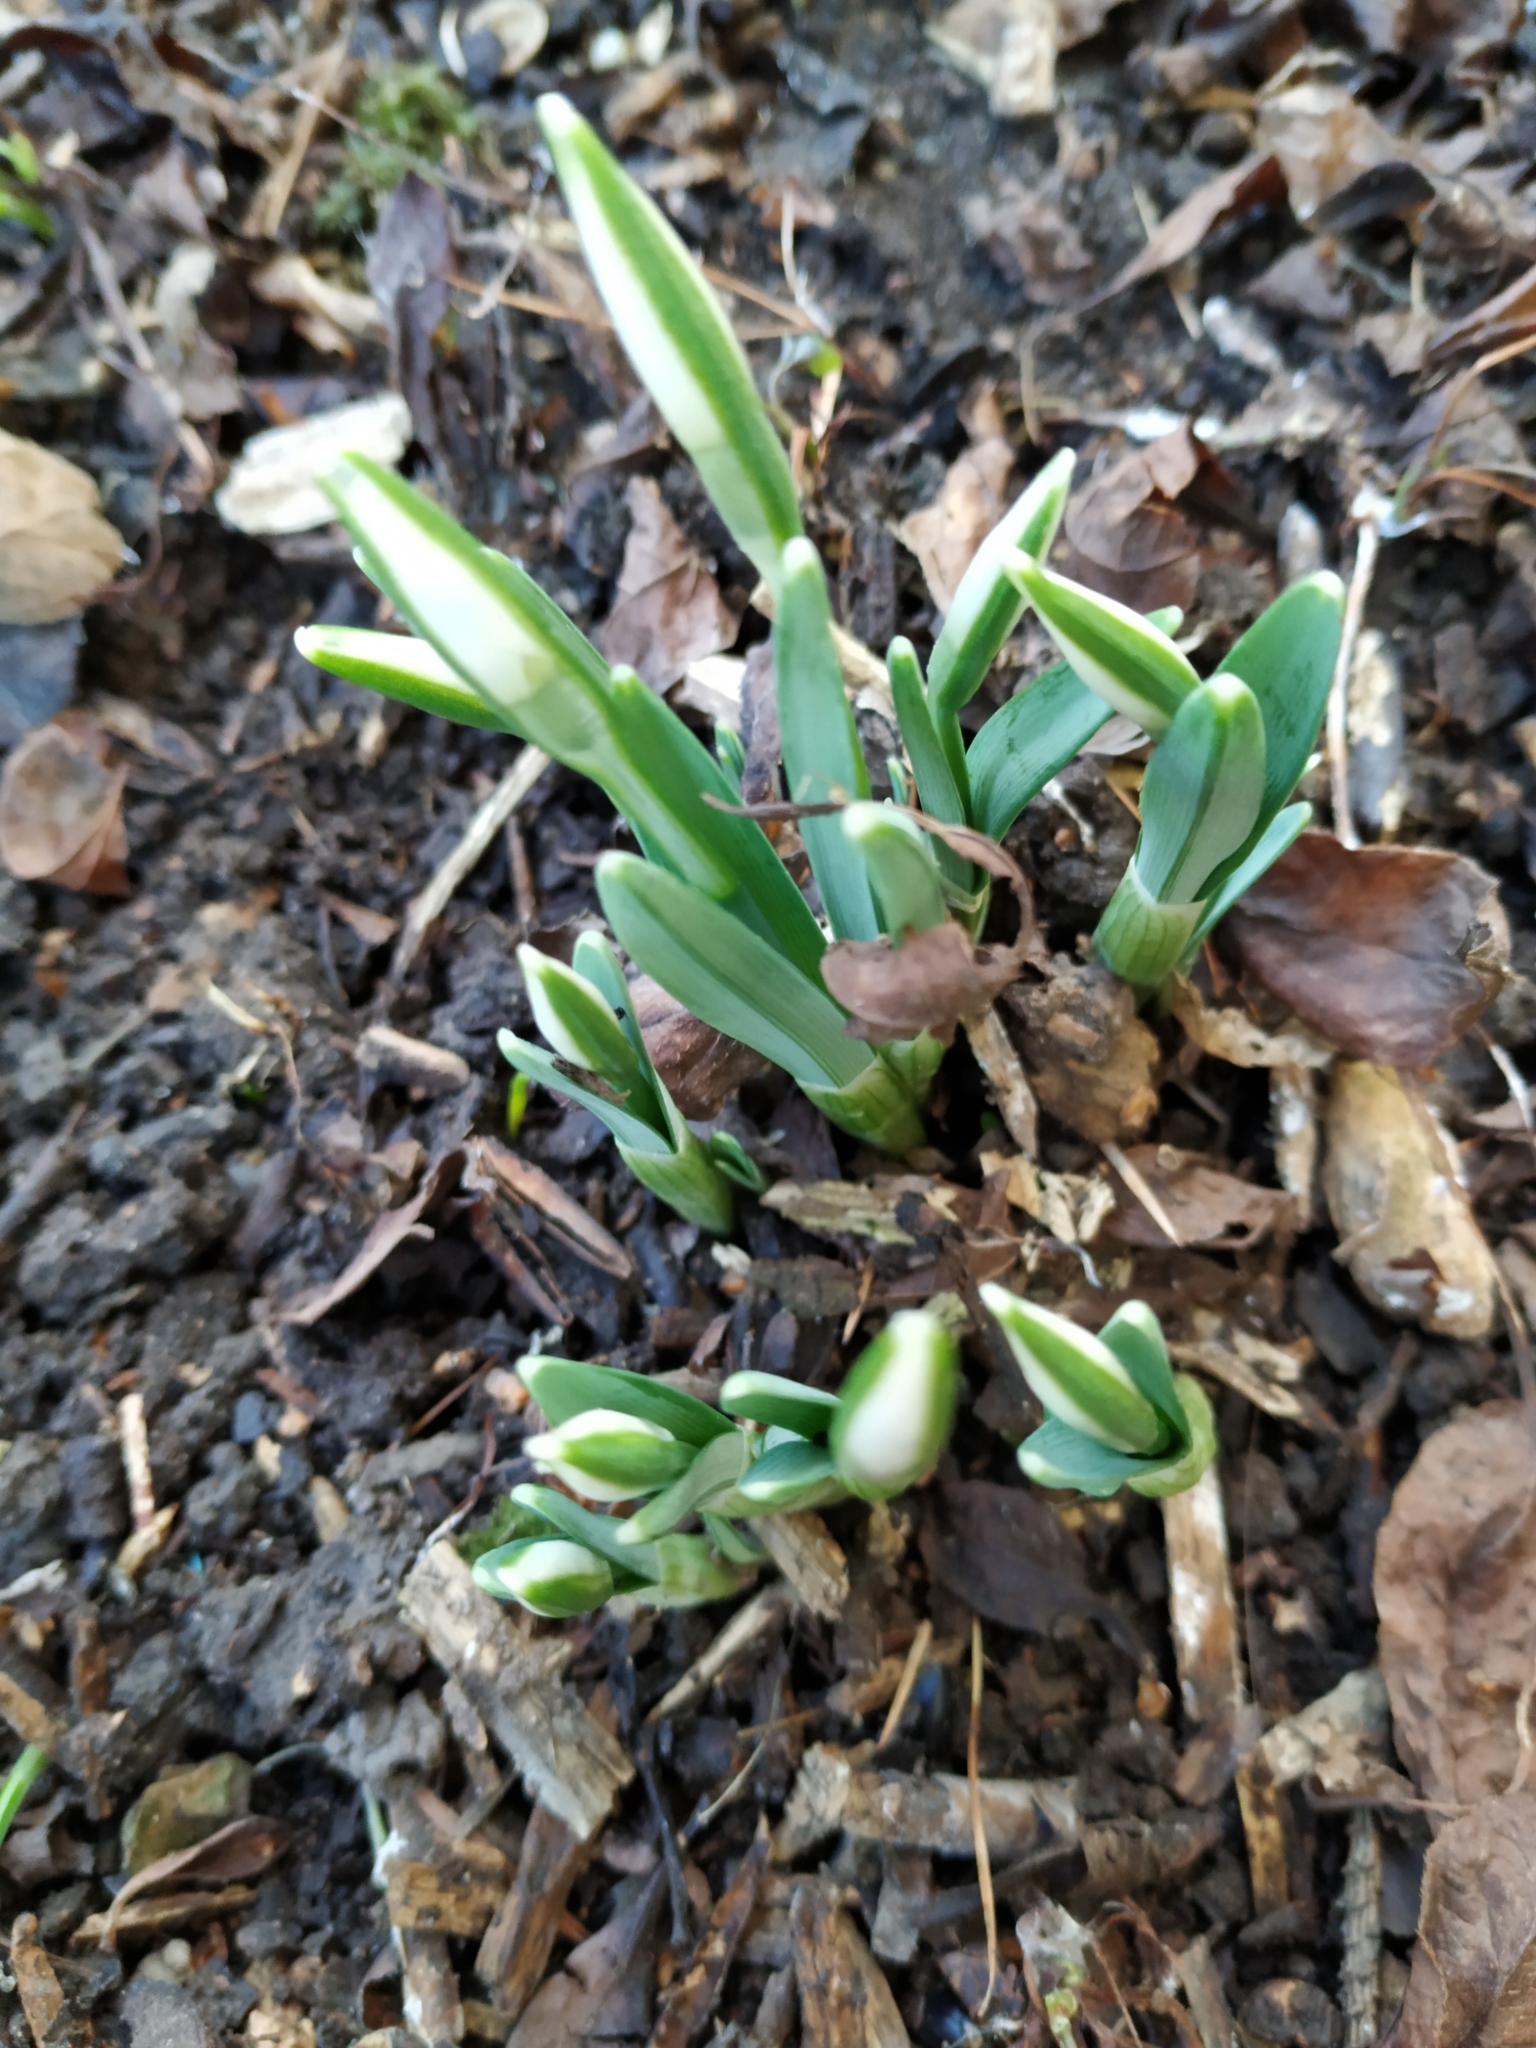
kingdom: Plantae
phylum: Tracheophyta
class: Liliopsida
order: Asparagales
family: Amaryllidaceae
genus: Galanthus
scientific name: Galanthus nivalis
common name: Snowdrop
